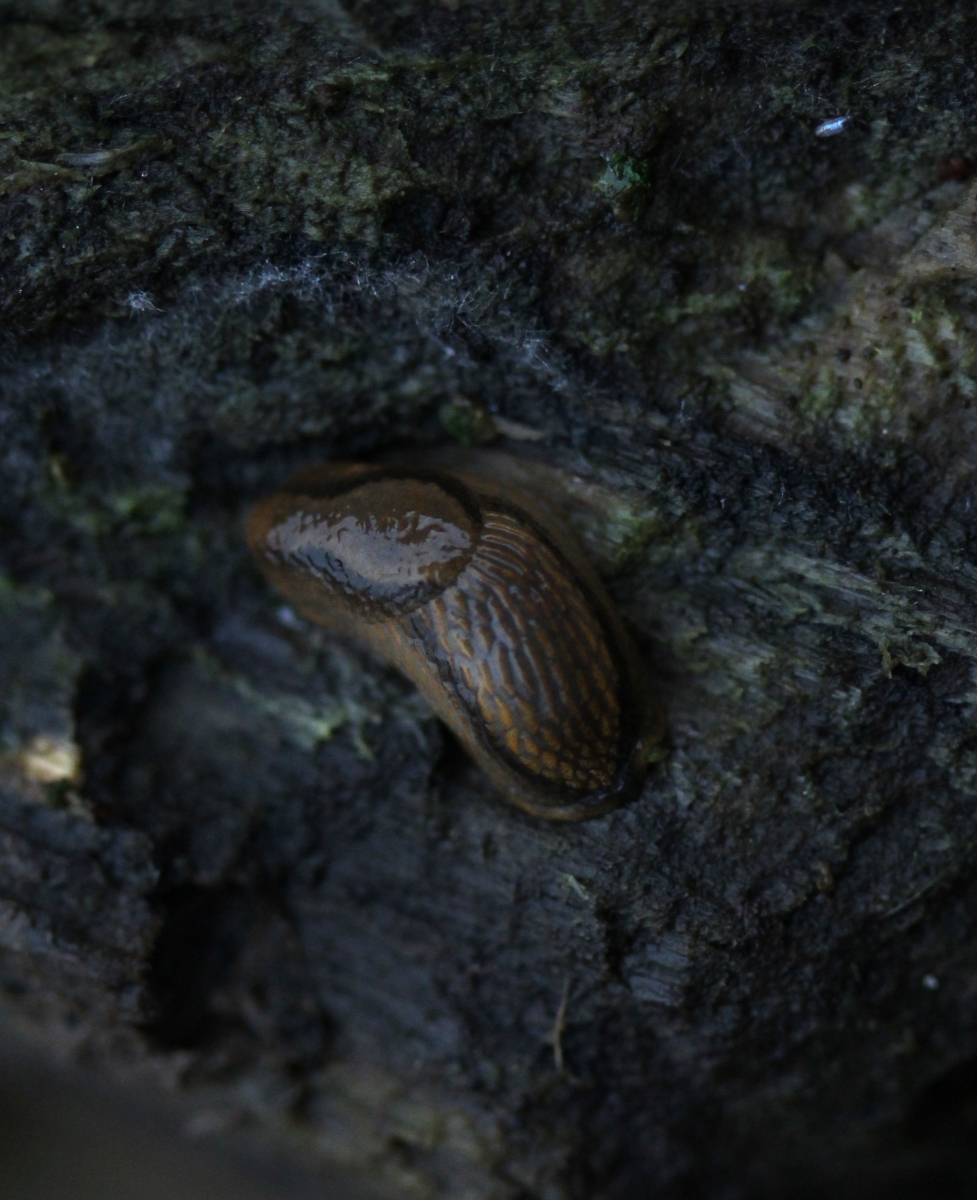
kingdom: Animalia
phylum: Mollusca
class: Gastropoda
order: Stylommatophora
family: Arionidae
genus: Arion
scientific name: Arion vulgaris
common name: Lusitanian slug
